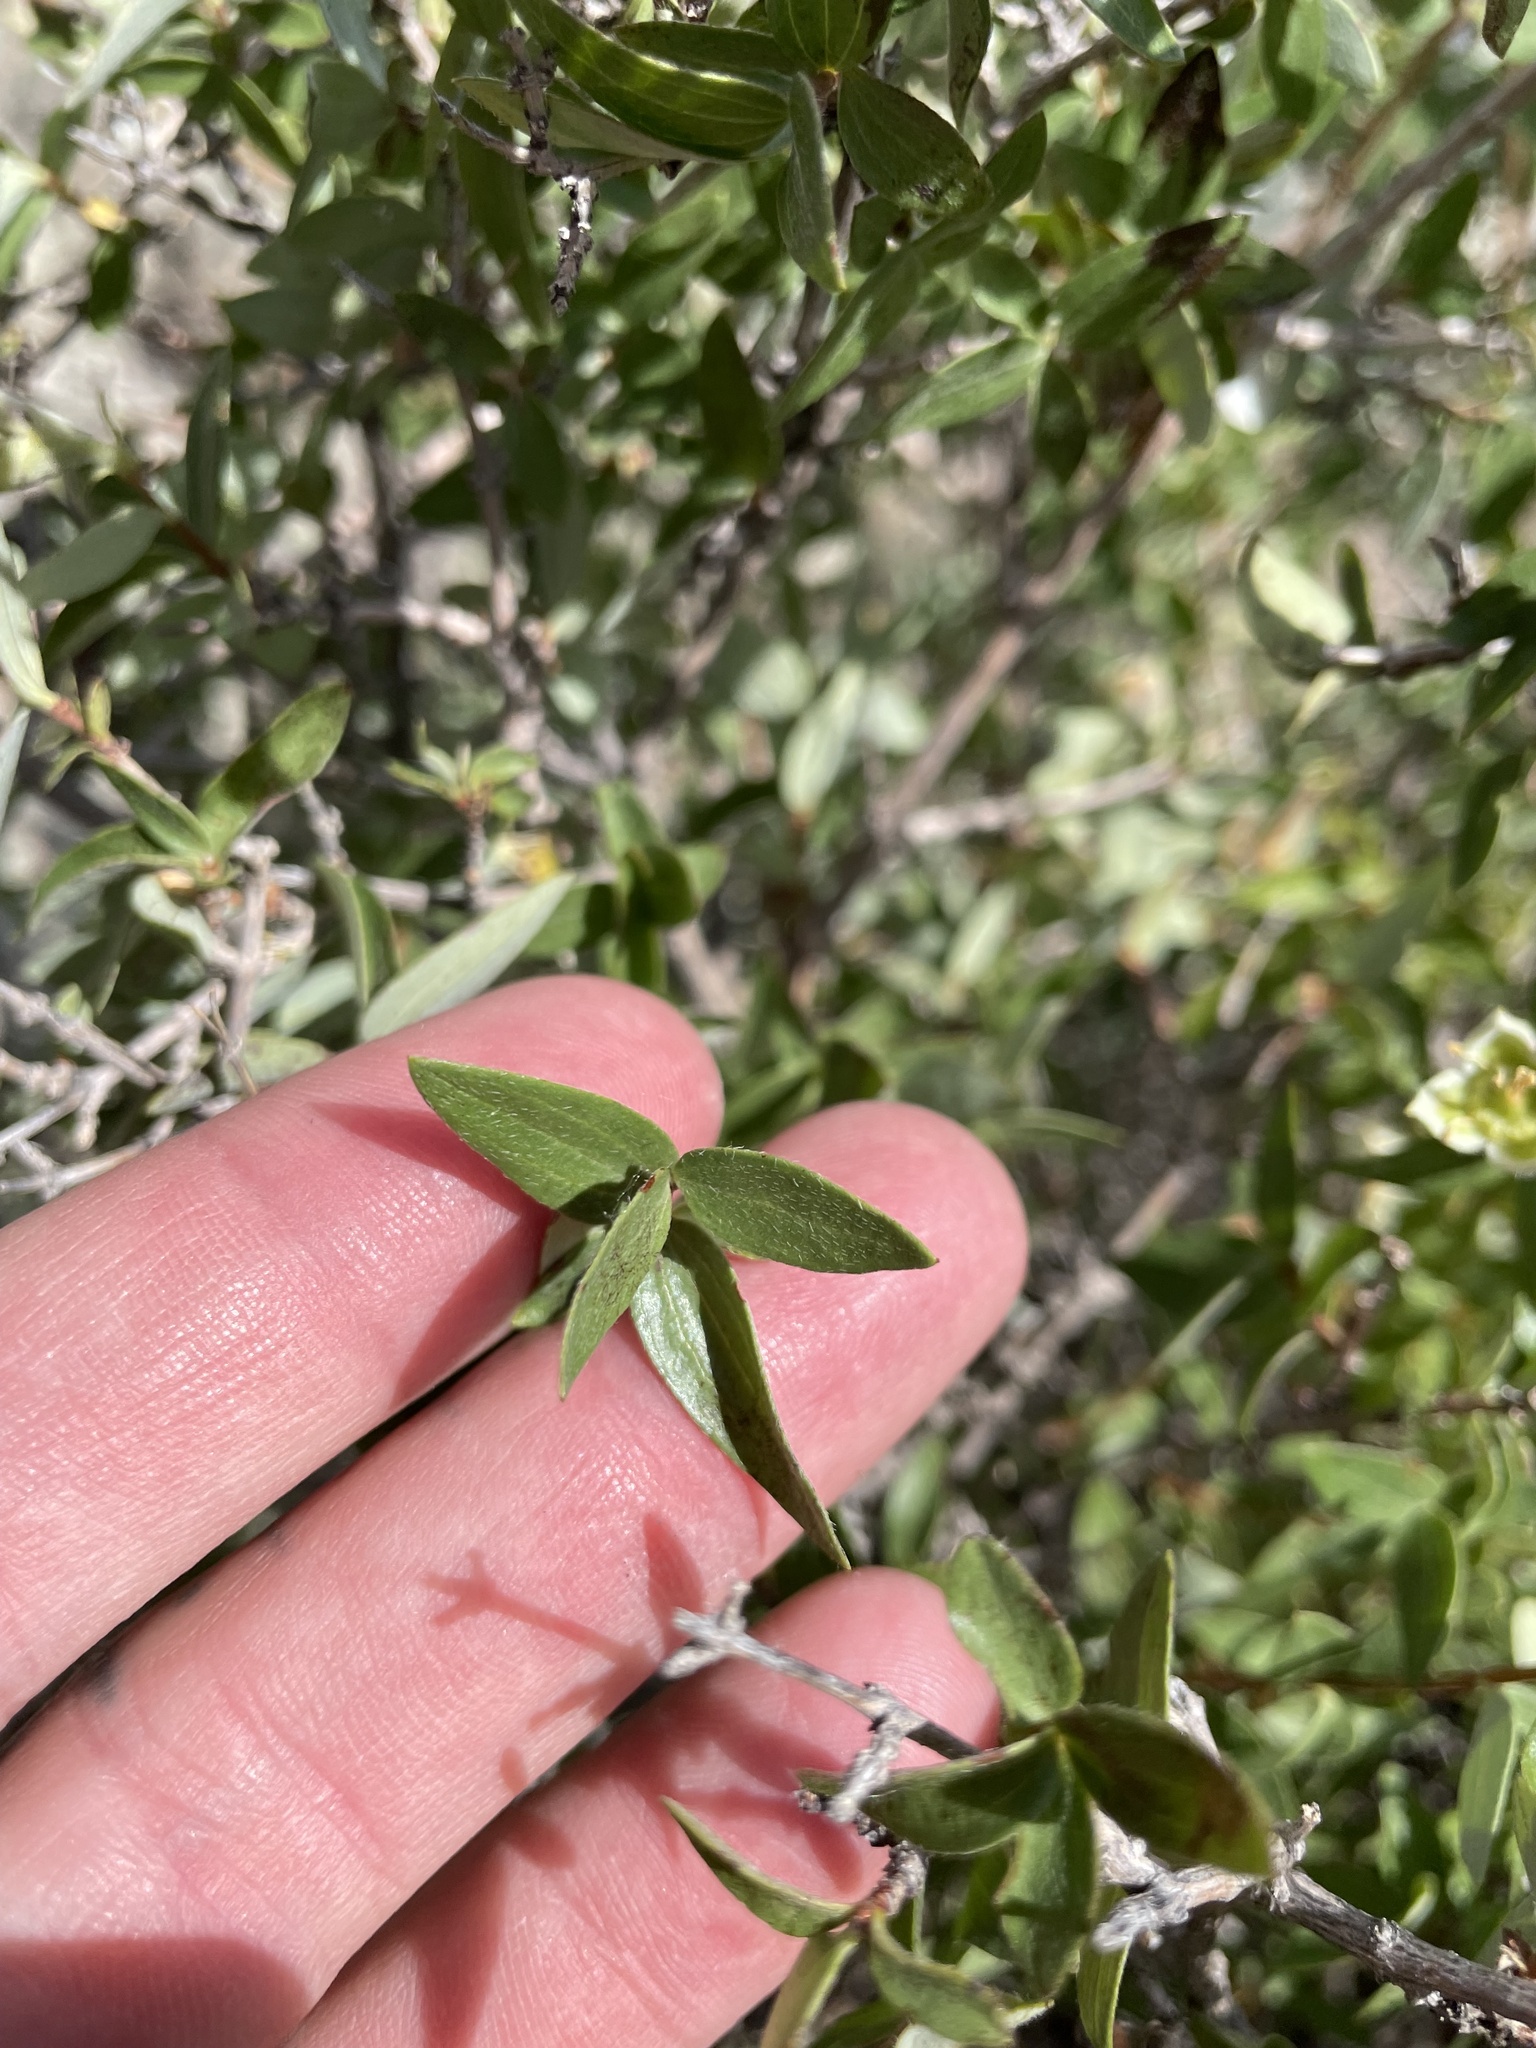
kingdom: Plantae
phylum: Tracheophyta
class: Magnoliopsida
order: Cornales
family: Hydrangeaceae
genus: Philadelphus
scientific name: Philadelphus microphyllus
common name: Desert mock orange
